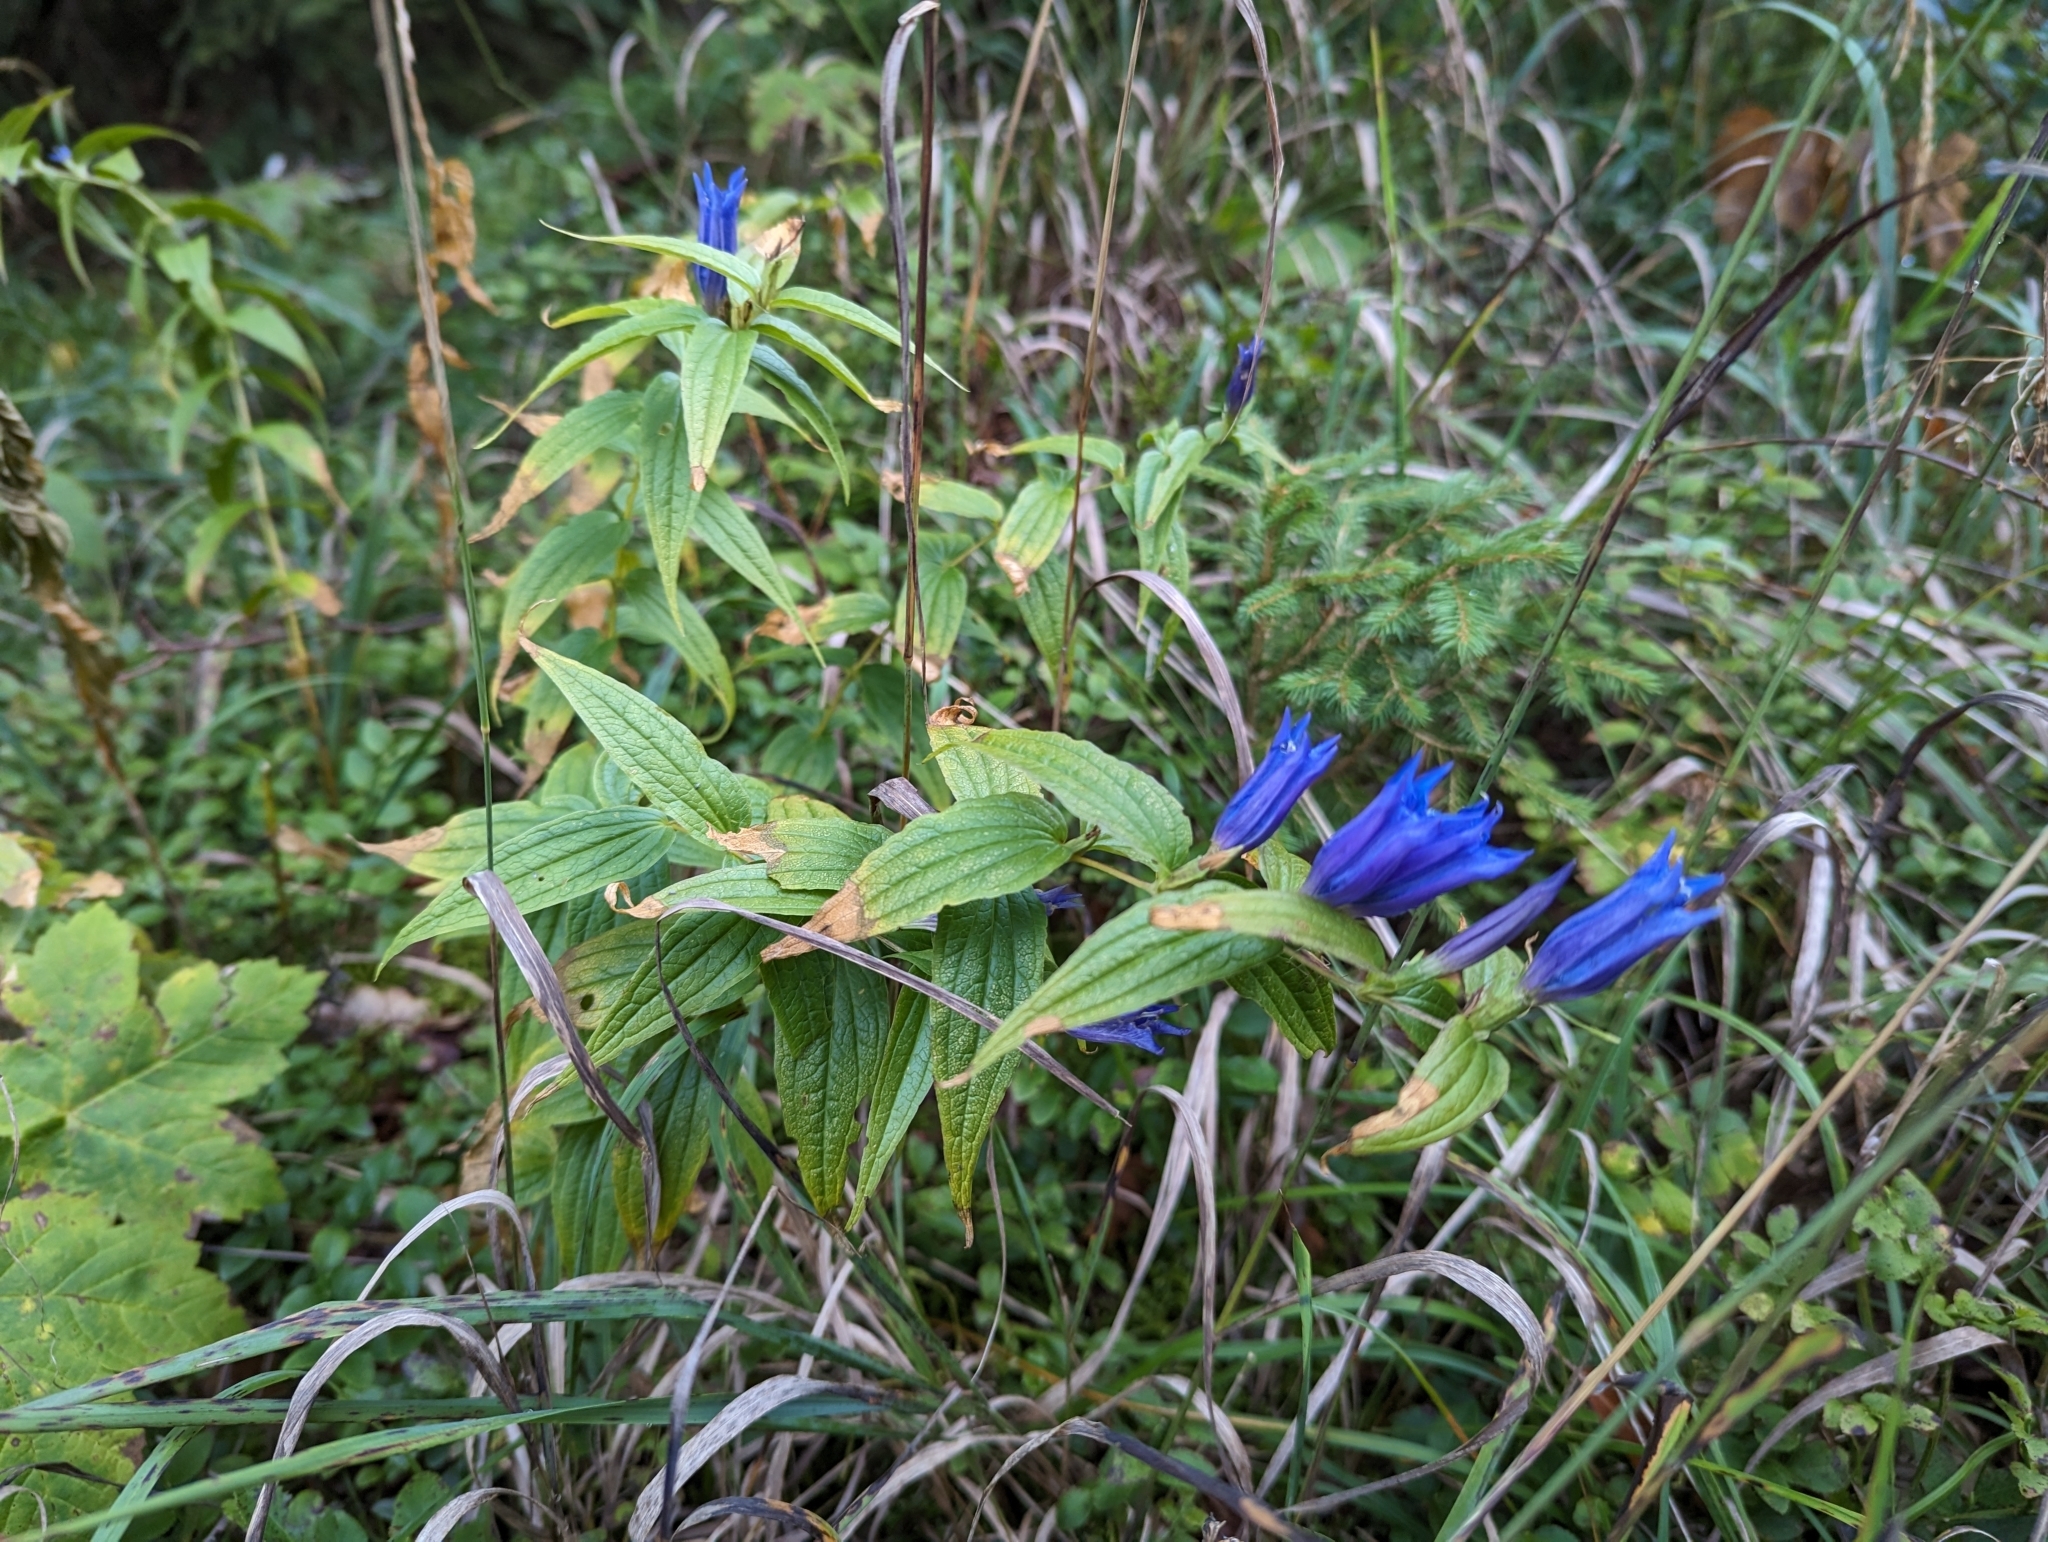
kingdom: Plantae
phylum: Tracheophyta
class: Magnoliopsida
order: Gentianales
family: Gentianaceae
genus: Gentiana
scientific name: Gentiana asclepiadea
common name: Willow gentian
